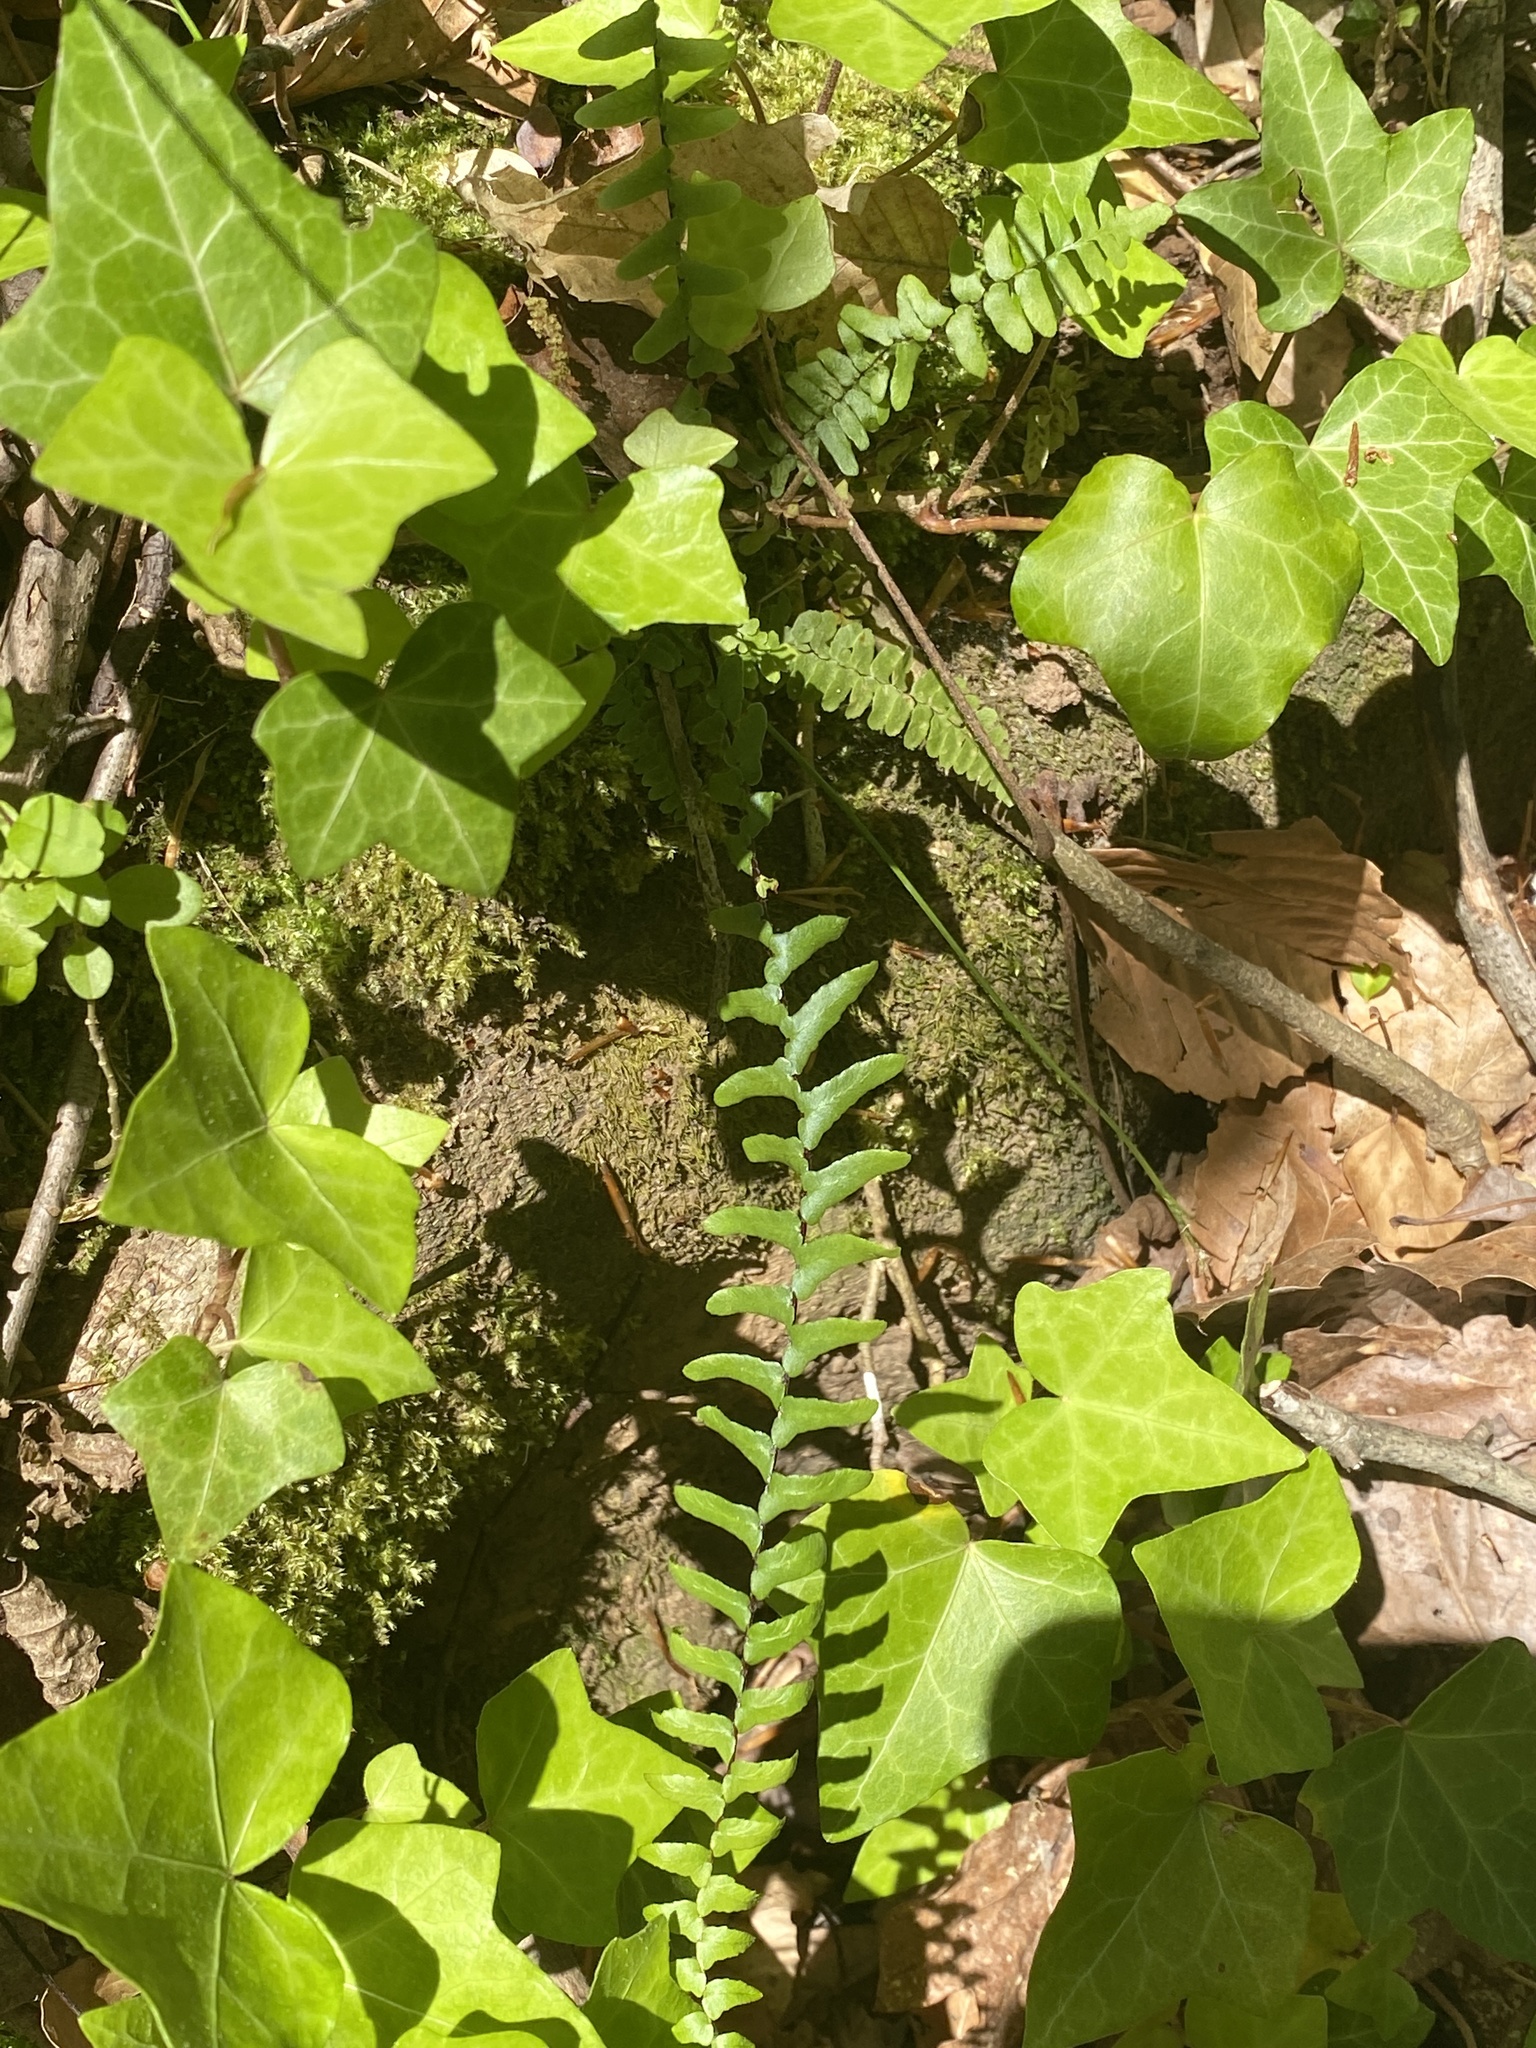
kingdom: Plantae
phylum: Tracheophyta
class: Polypodiopsida
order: Polypodiales
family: Aspleniaceae
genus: Asplenium
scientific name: Asplenium platyneuron
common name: Ebony spleenwort
